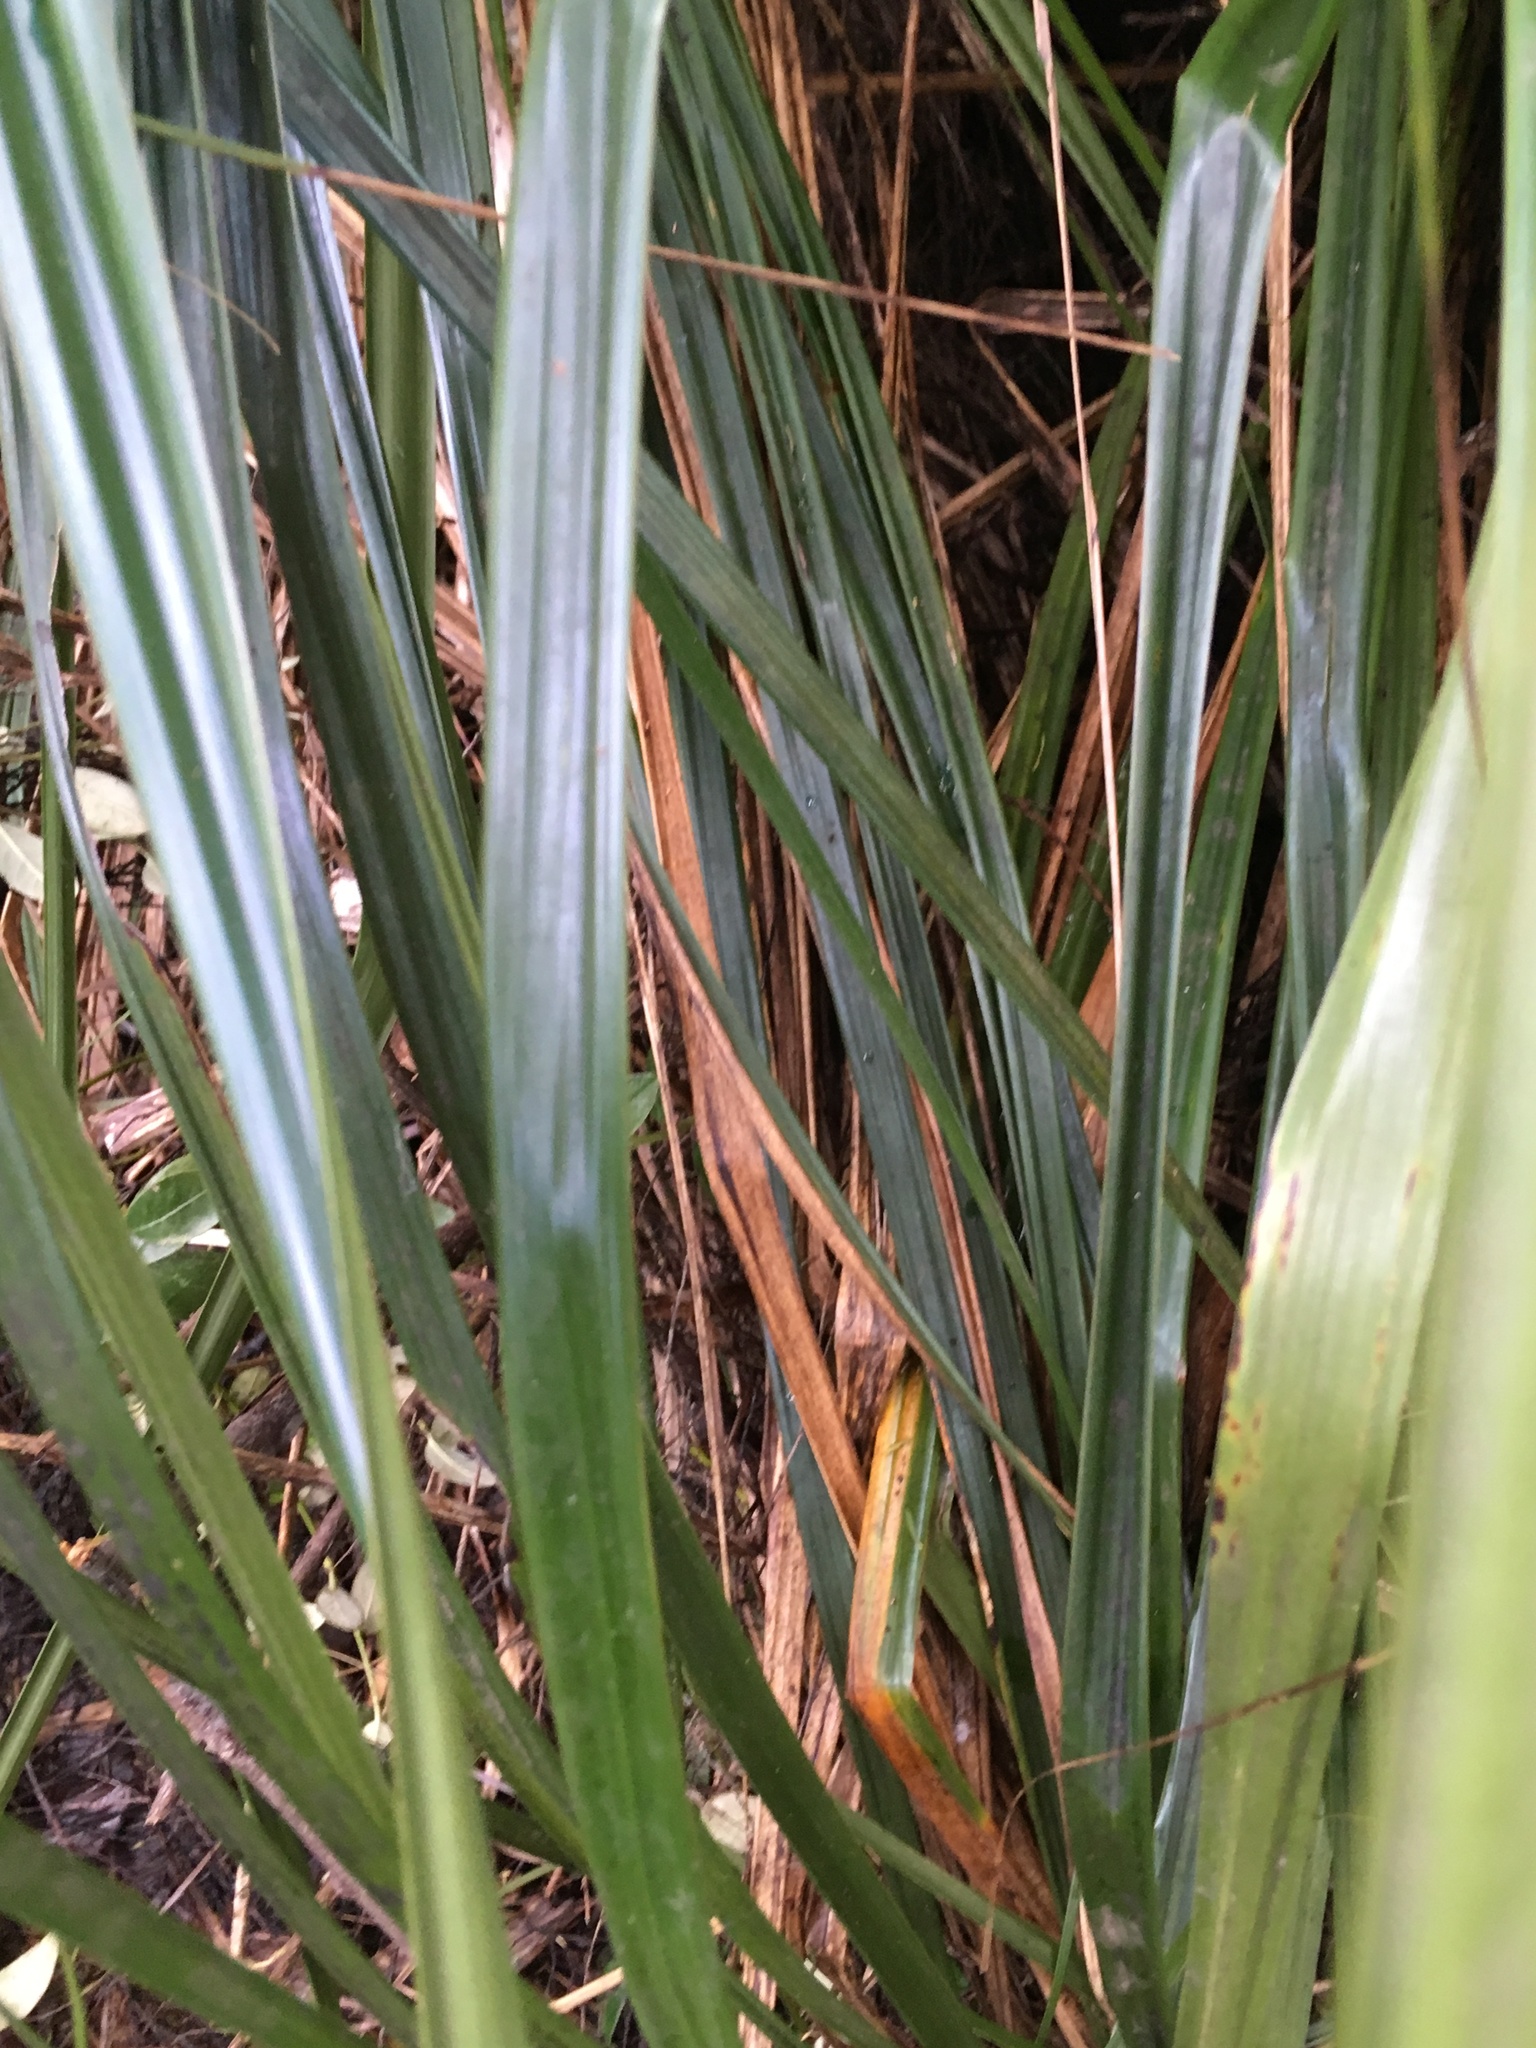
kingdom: Plantae
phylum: Tracheophyta
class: Liliopsida
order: Poales
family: Cyperaceae
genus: Gahnia
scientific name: Gahnia xanthocarpa
